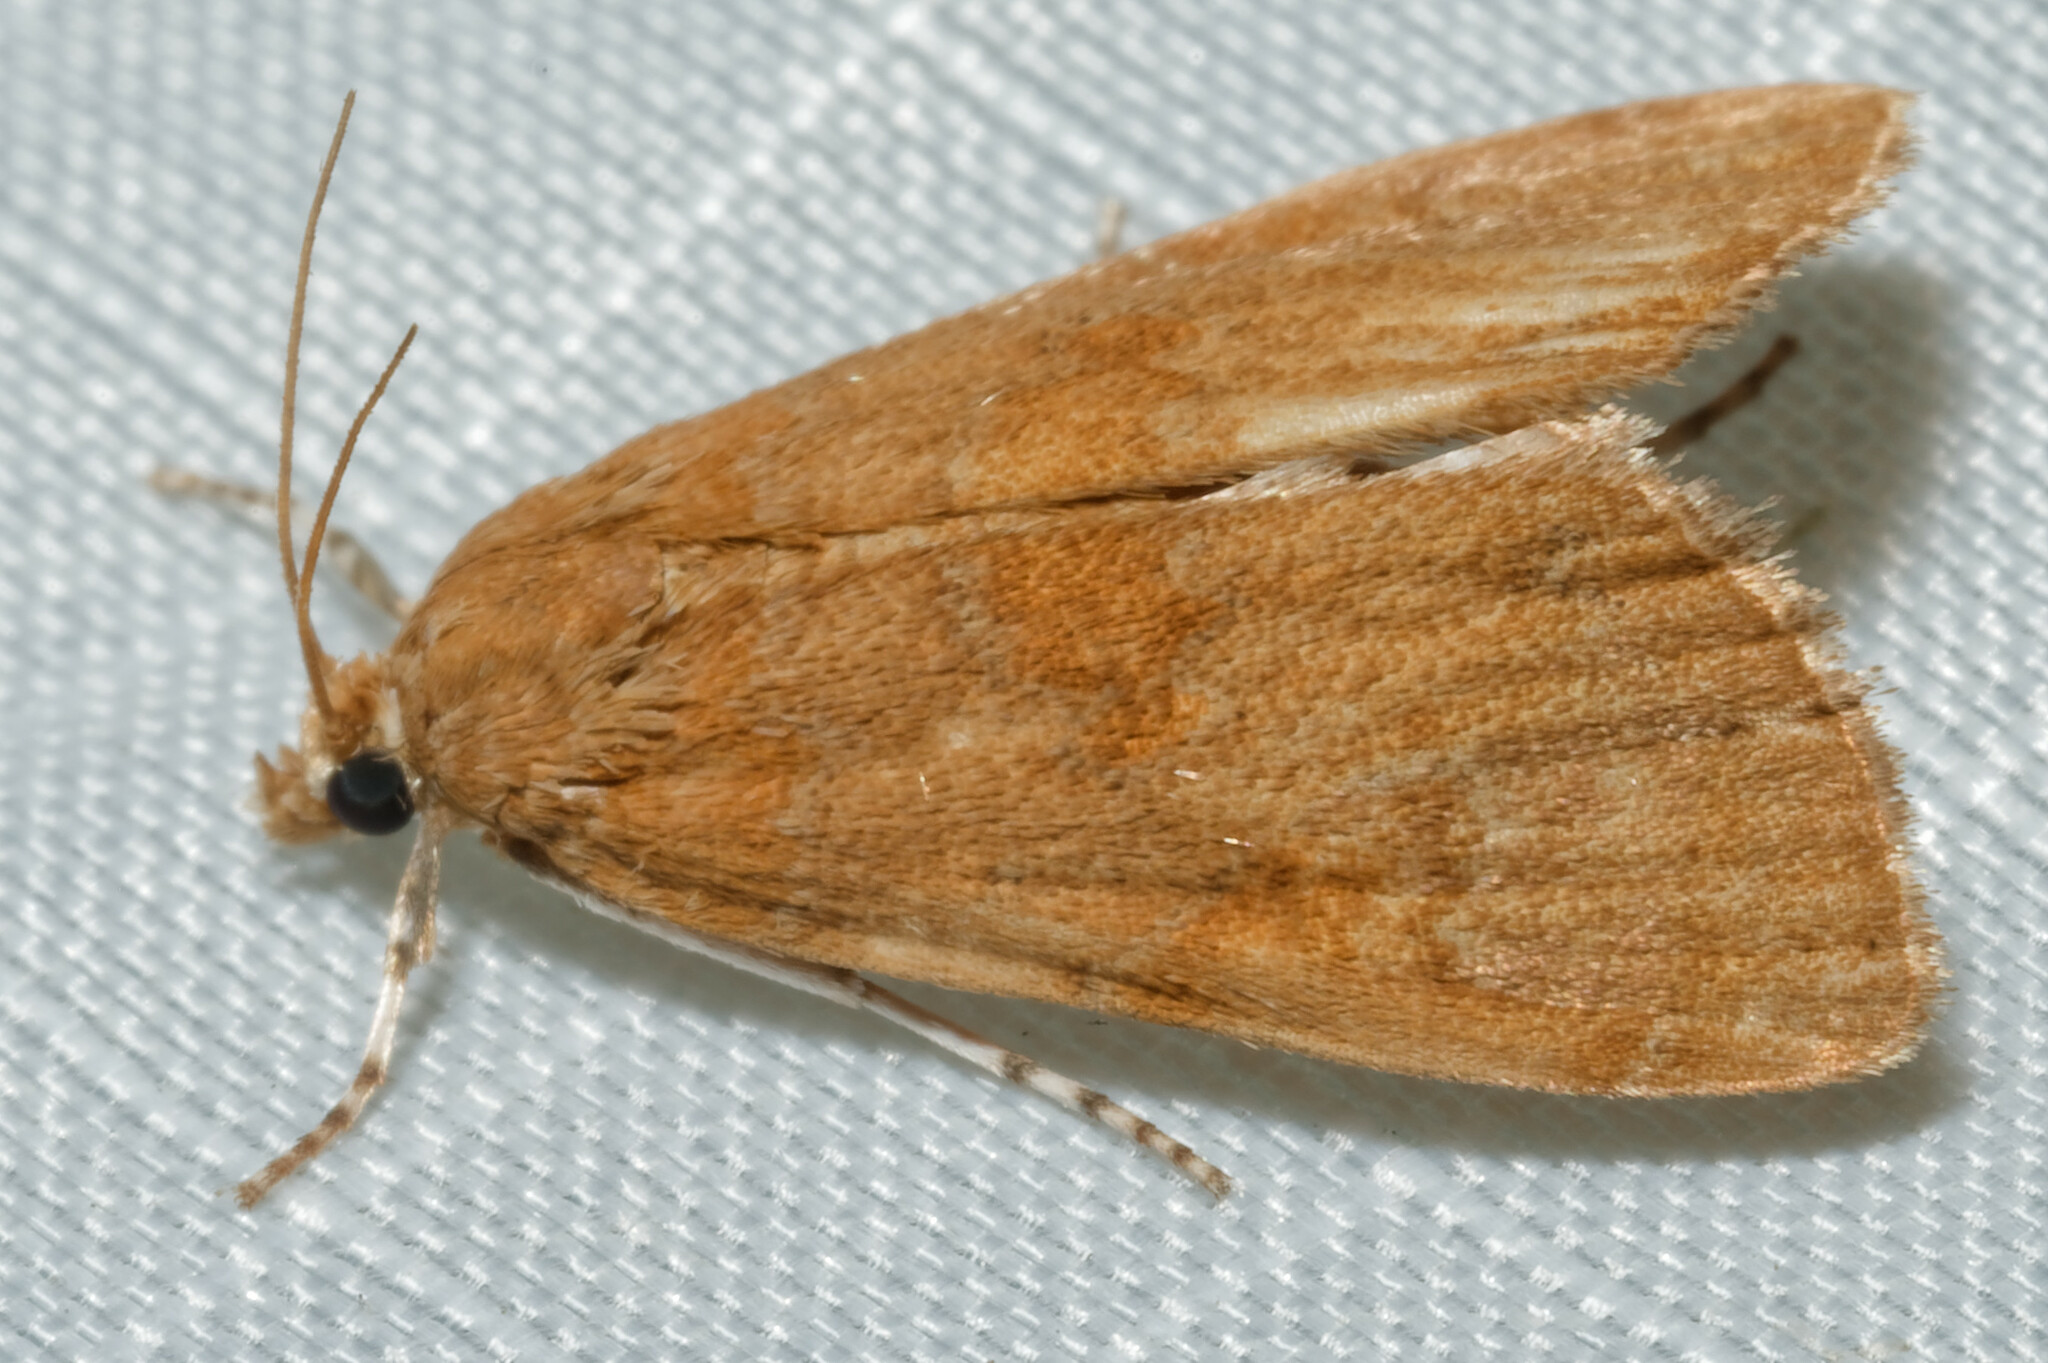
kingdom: Animalia
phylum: Arthropoda
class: Insecta
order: Lepidoptera
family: Crambidae
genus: Elophila
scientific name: Elophila gyralis
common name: Waterlily borer moth
